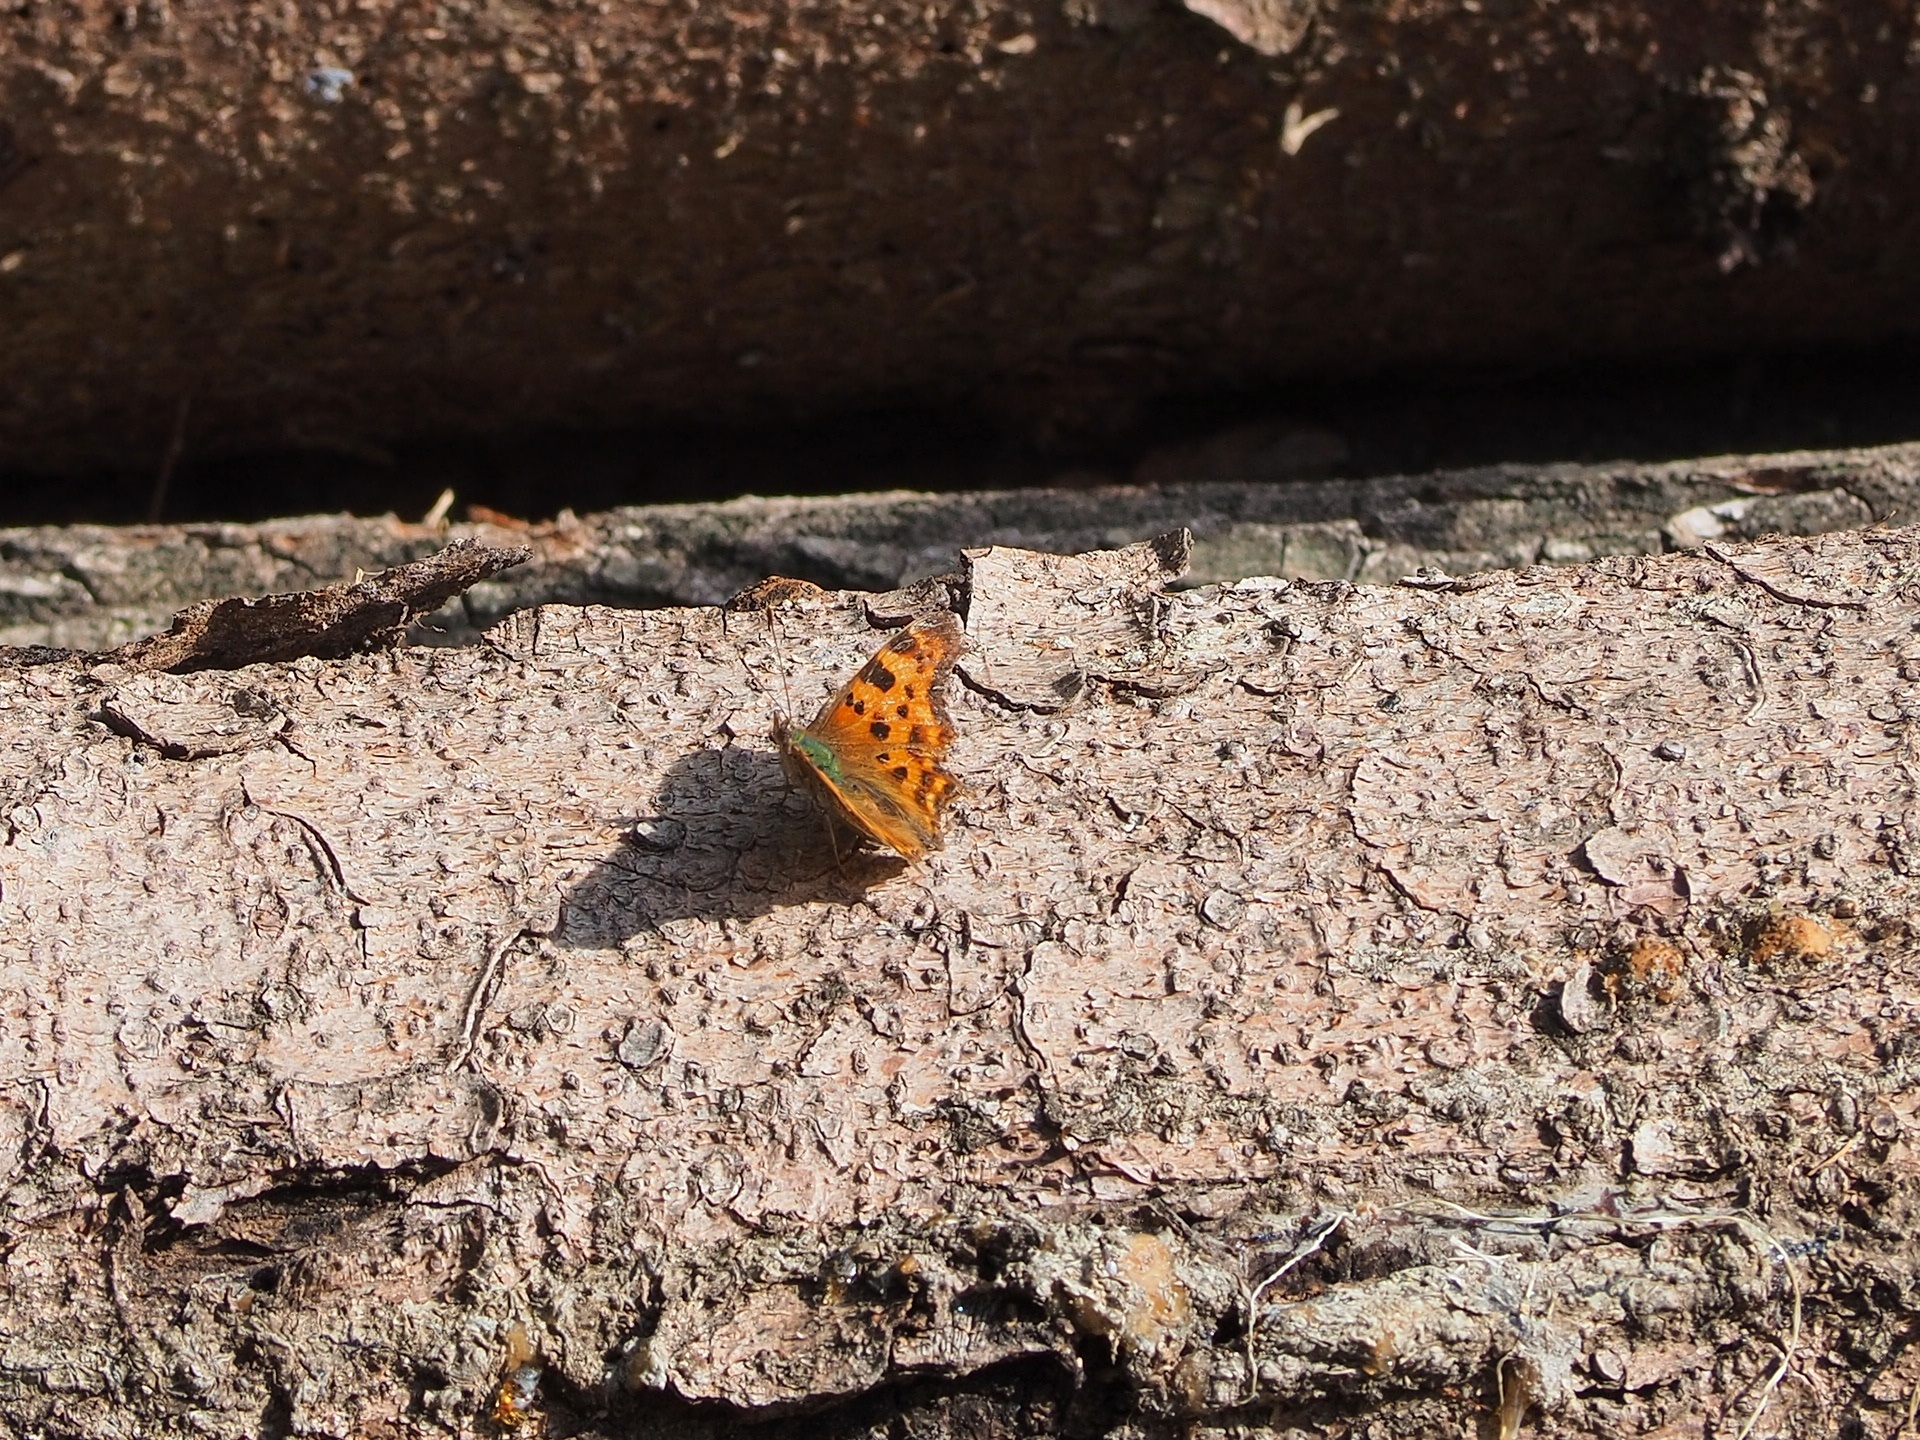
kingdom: Animalia
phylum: Arthropoda
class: Insecta
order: Lepidoptera
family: Nymphalidae
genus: Polygonia
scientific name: Polygonia c-album
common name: Comma
